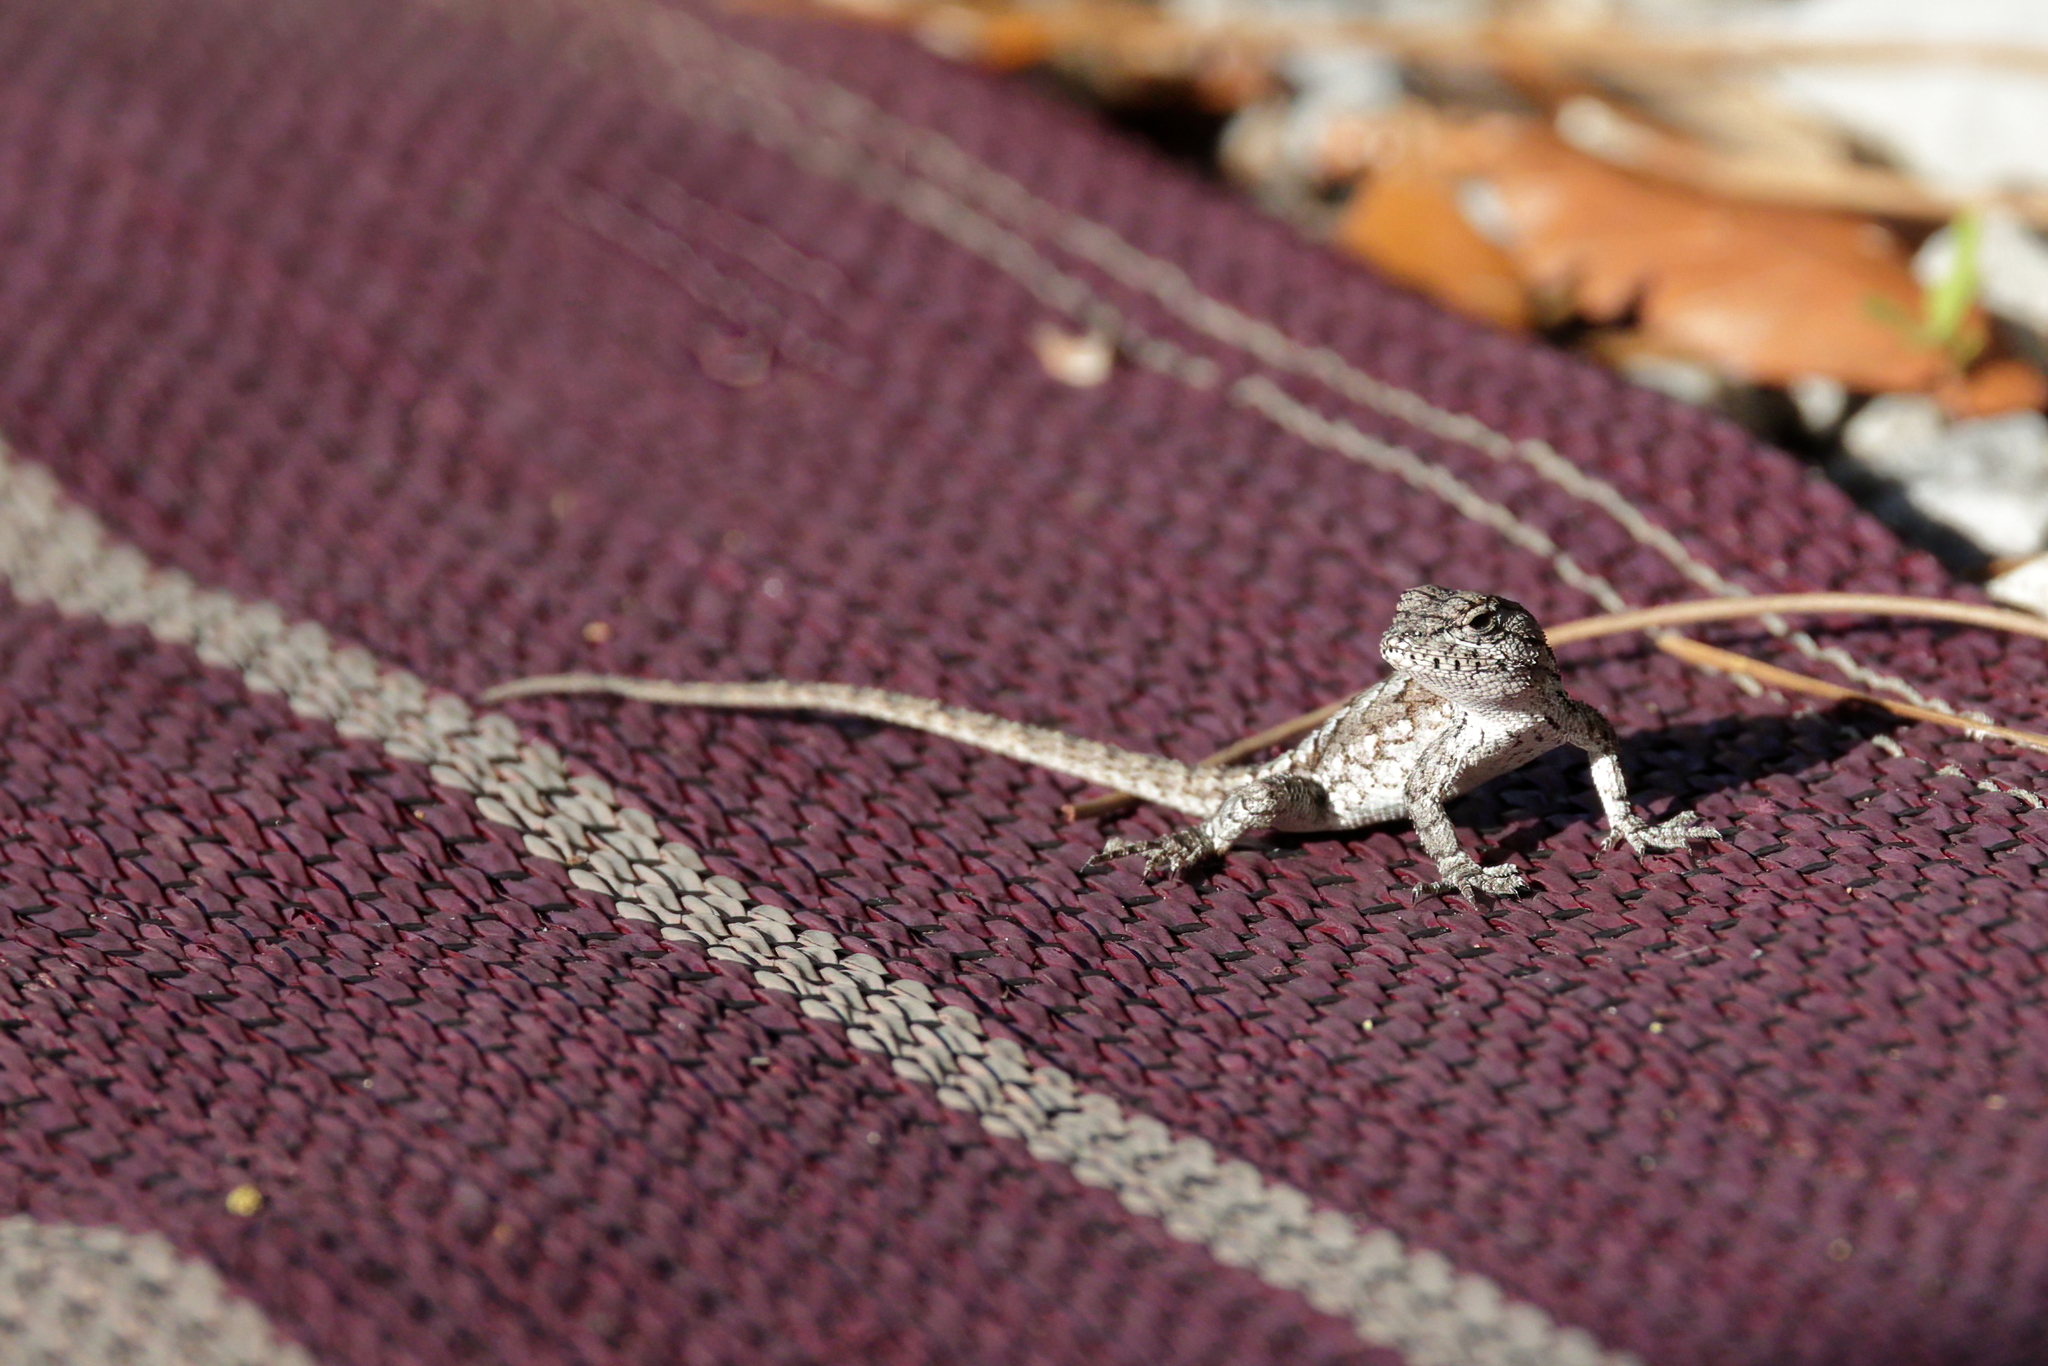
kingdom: Animalia
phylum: Chordata
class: Squamata
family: Phrynosomatidae
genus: Sceloporus
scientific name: Sceloporus undulatus
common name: Eastern fence lizard
